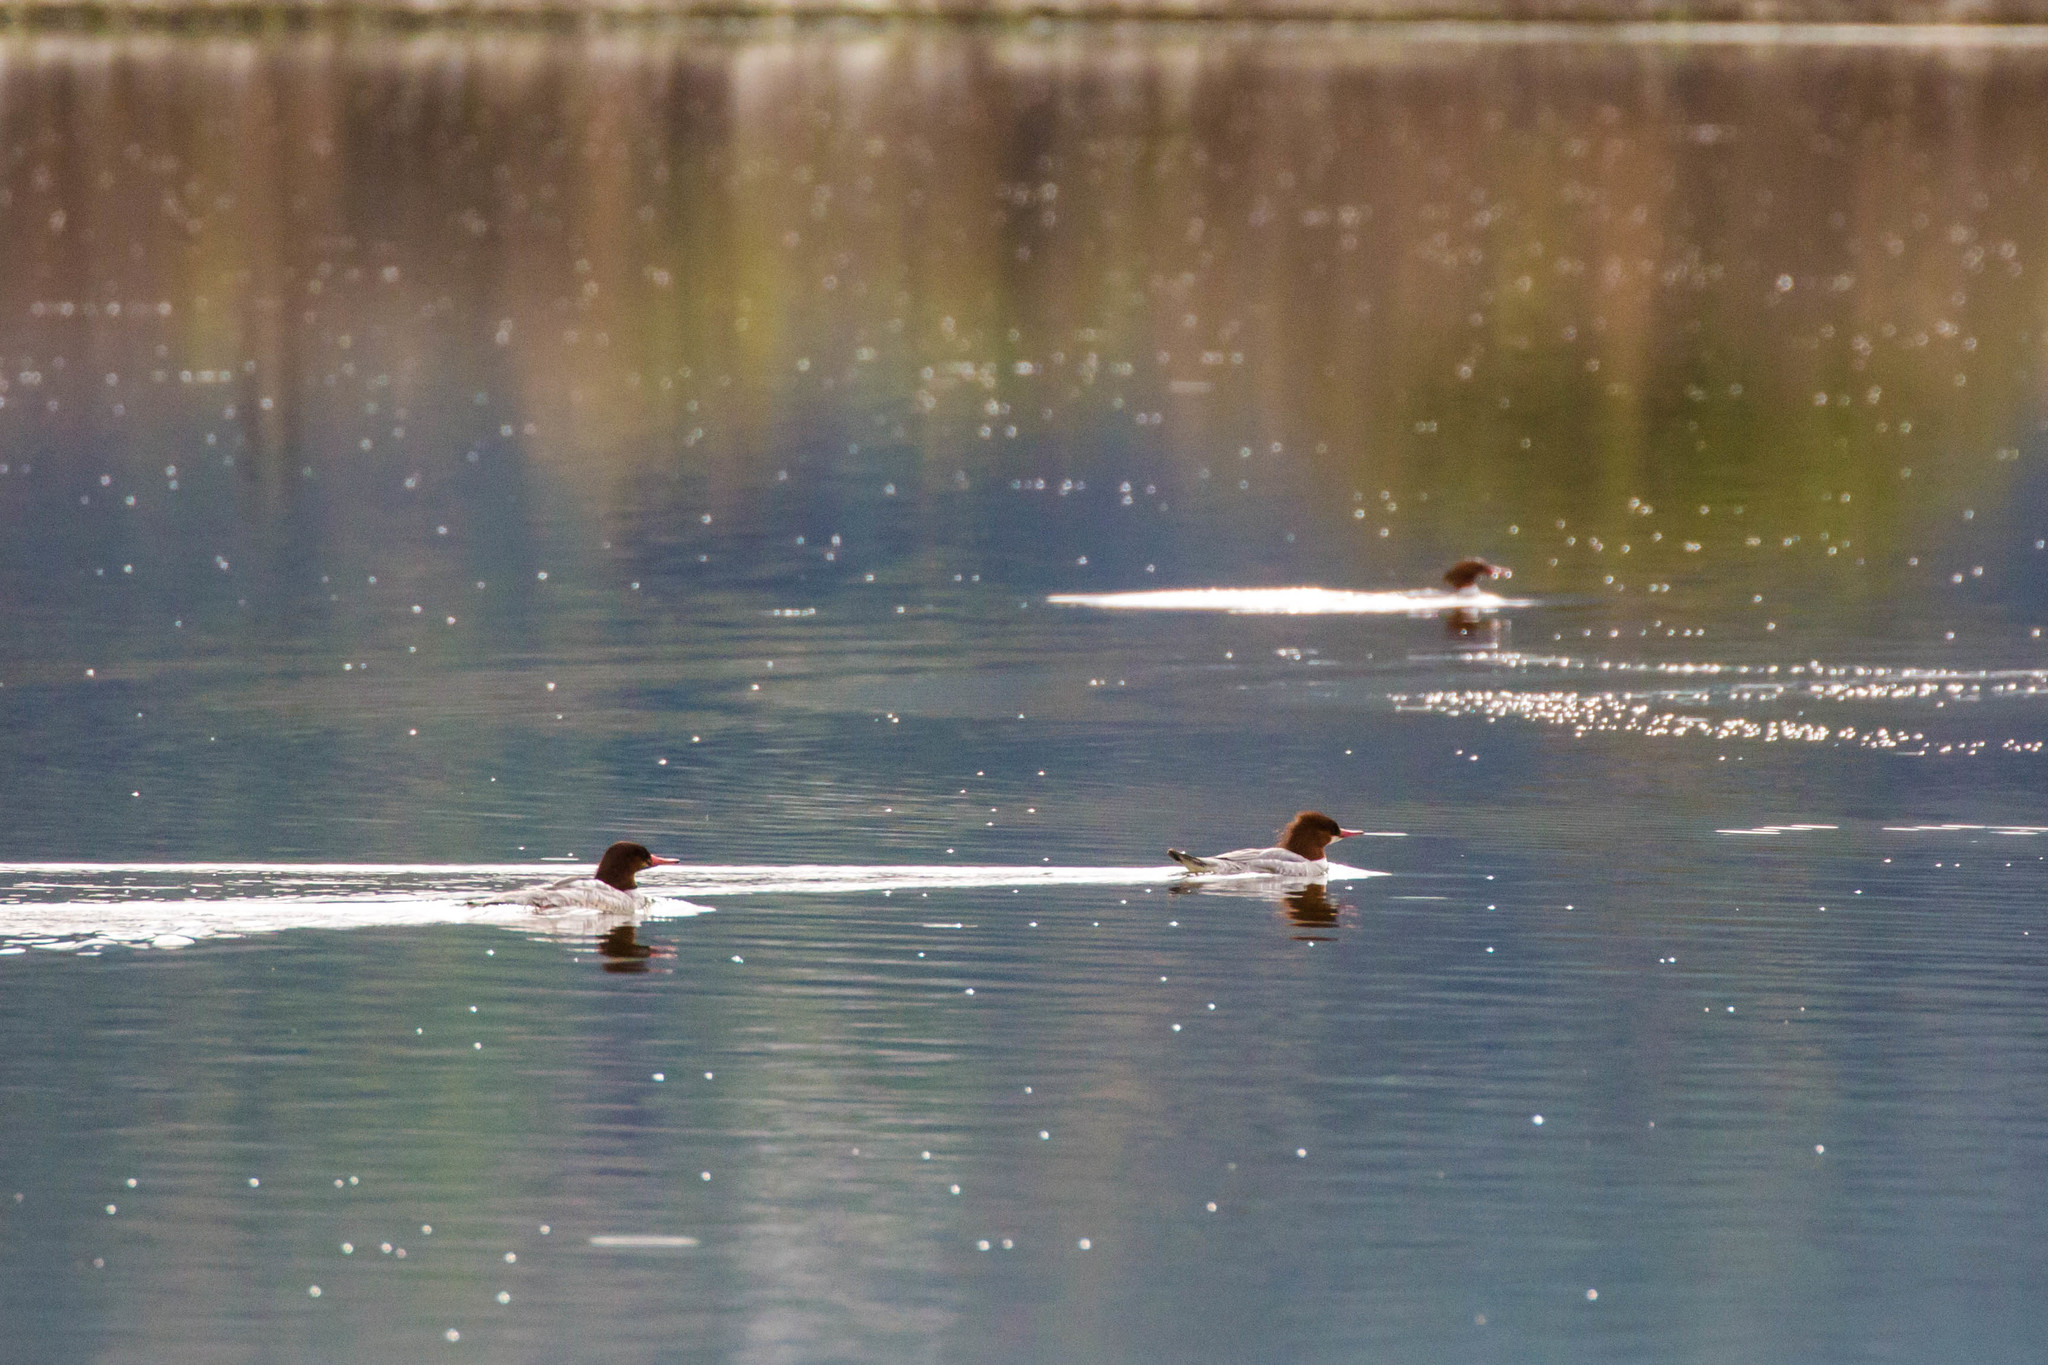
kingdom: Animalia
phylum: Chordata
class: Aves
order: Anseriformes
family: Anatidae
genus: Mergus
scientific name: Mergus merganser
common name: Common merganser
